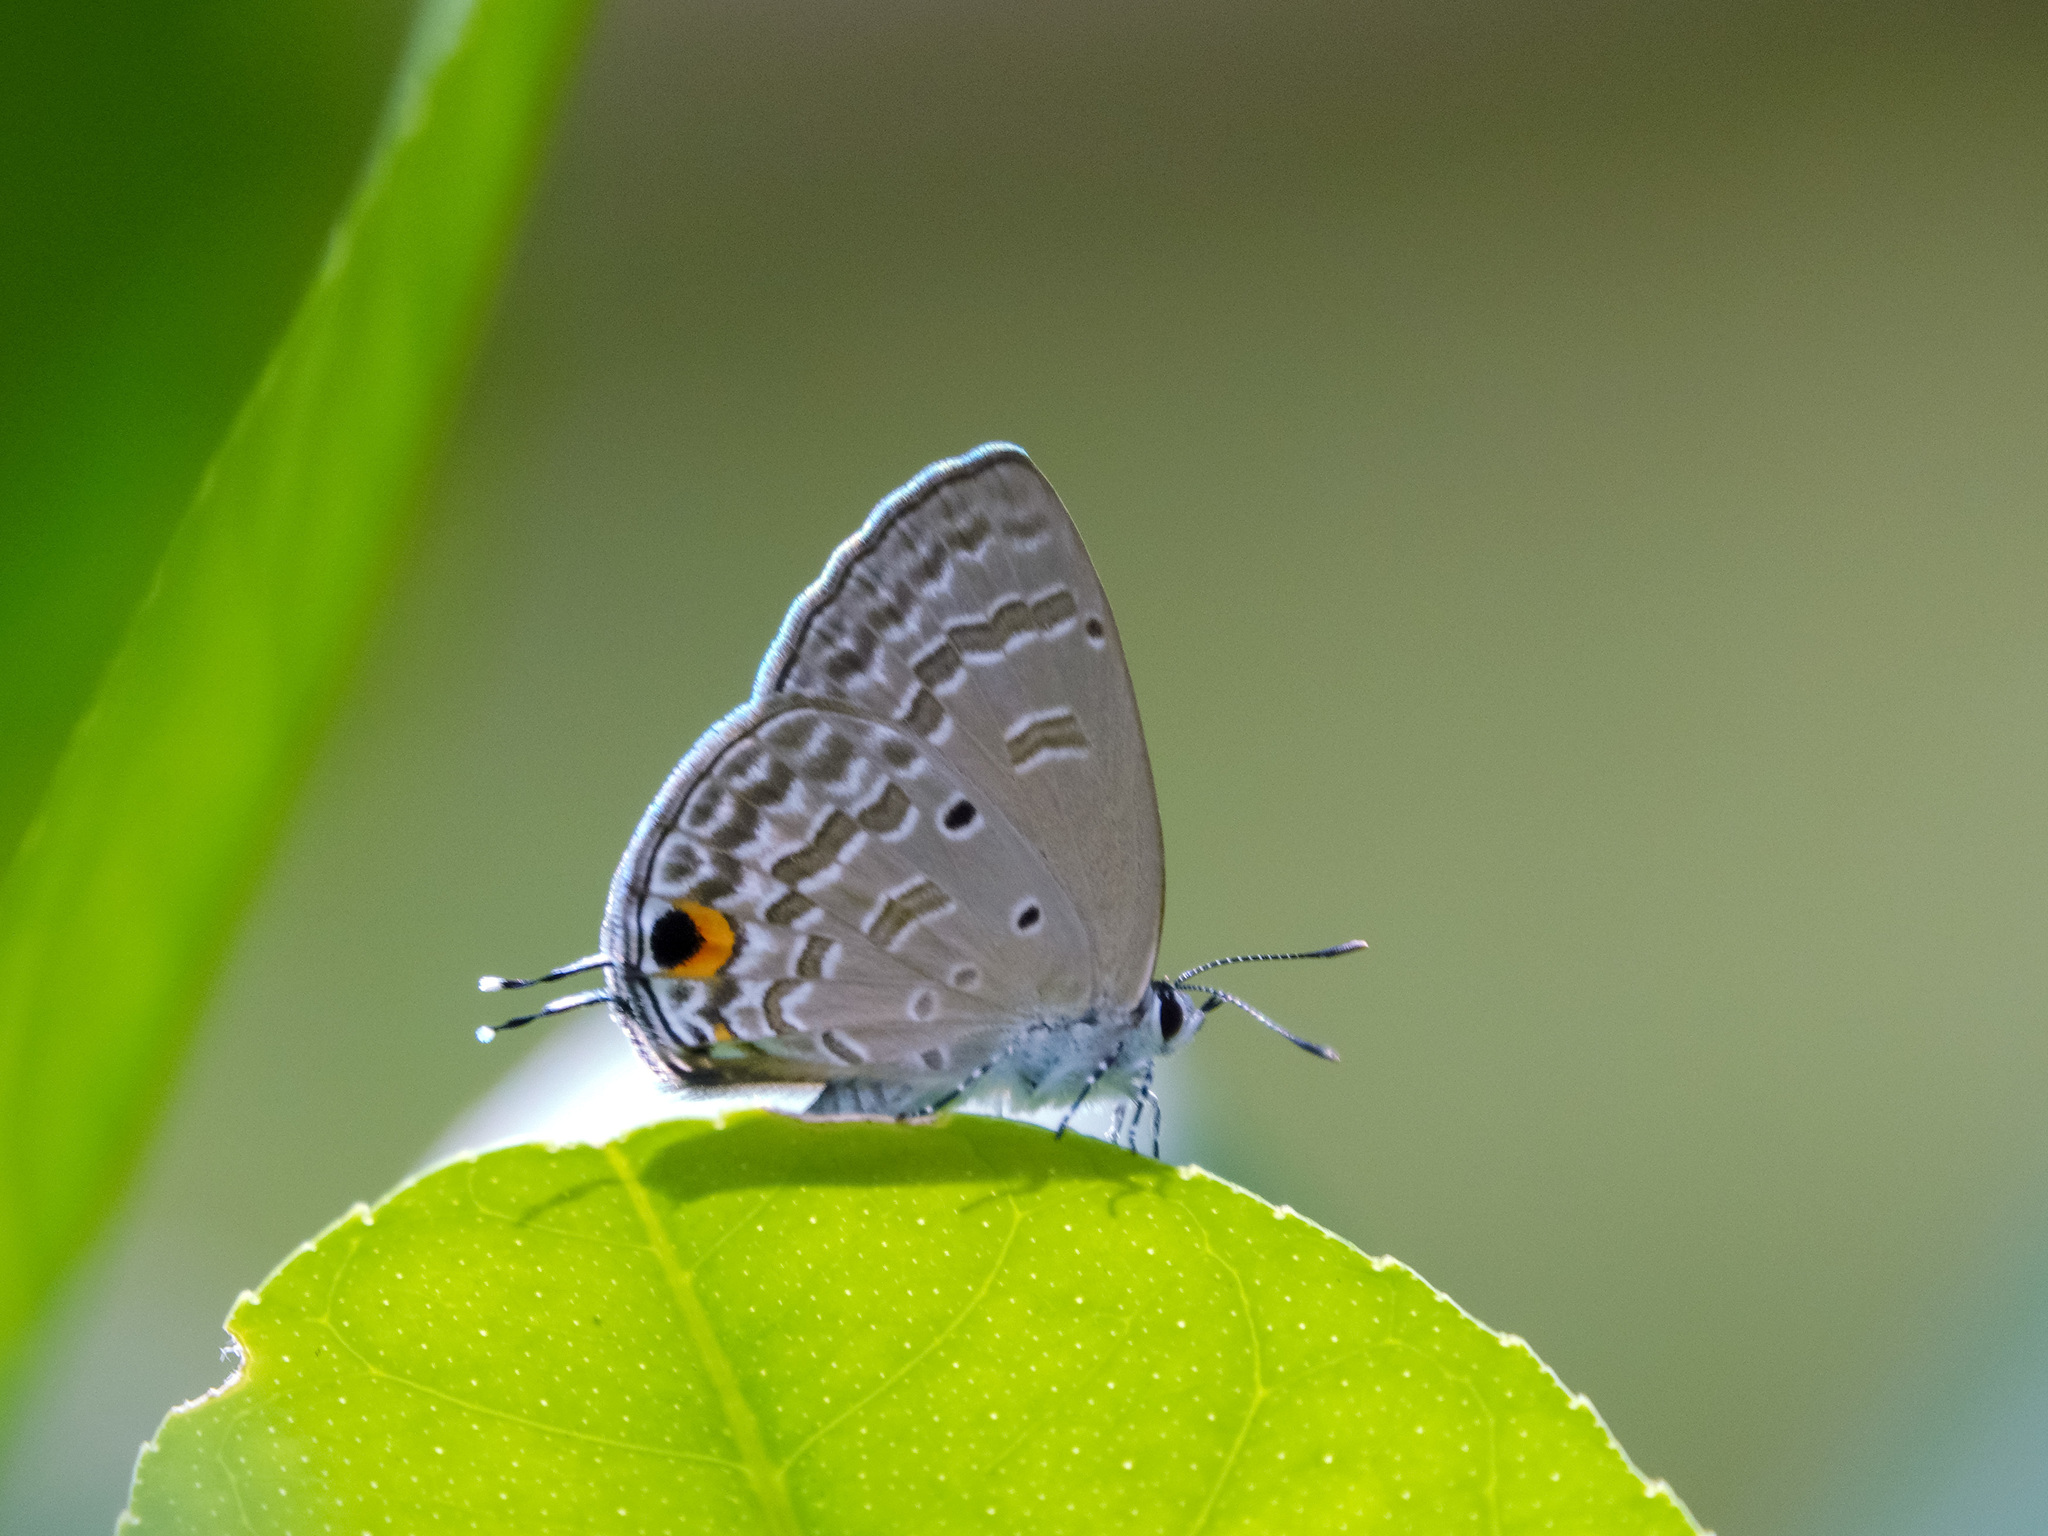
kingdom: Animalia
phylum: Arthropoda
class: Insecta
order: Lepidoptera
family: Lycaenidae
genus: Catochrysops
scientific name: Catochrysops panormus
